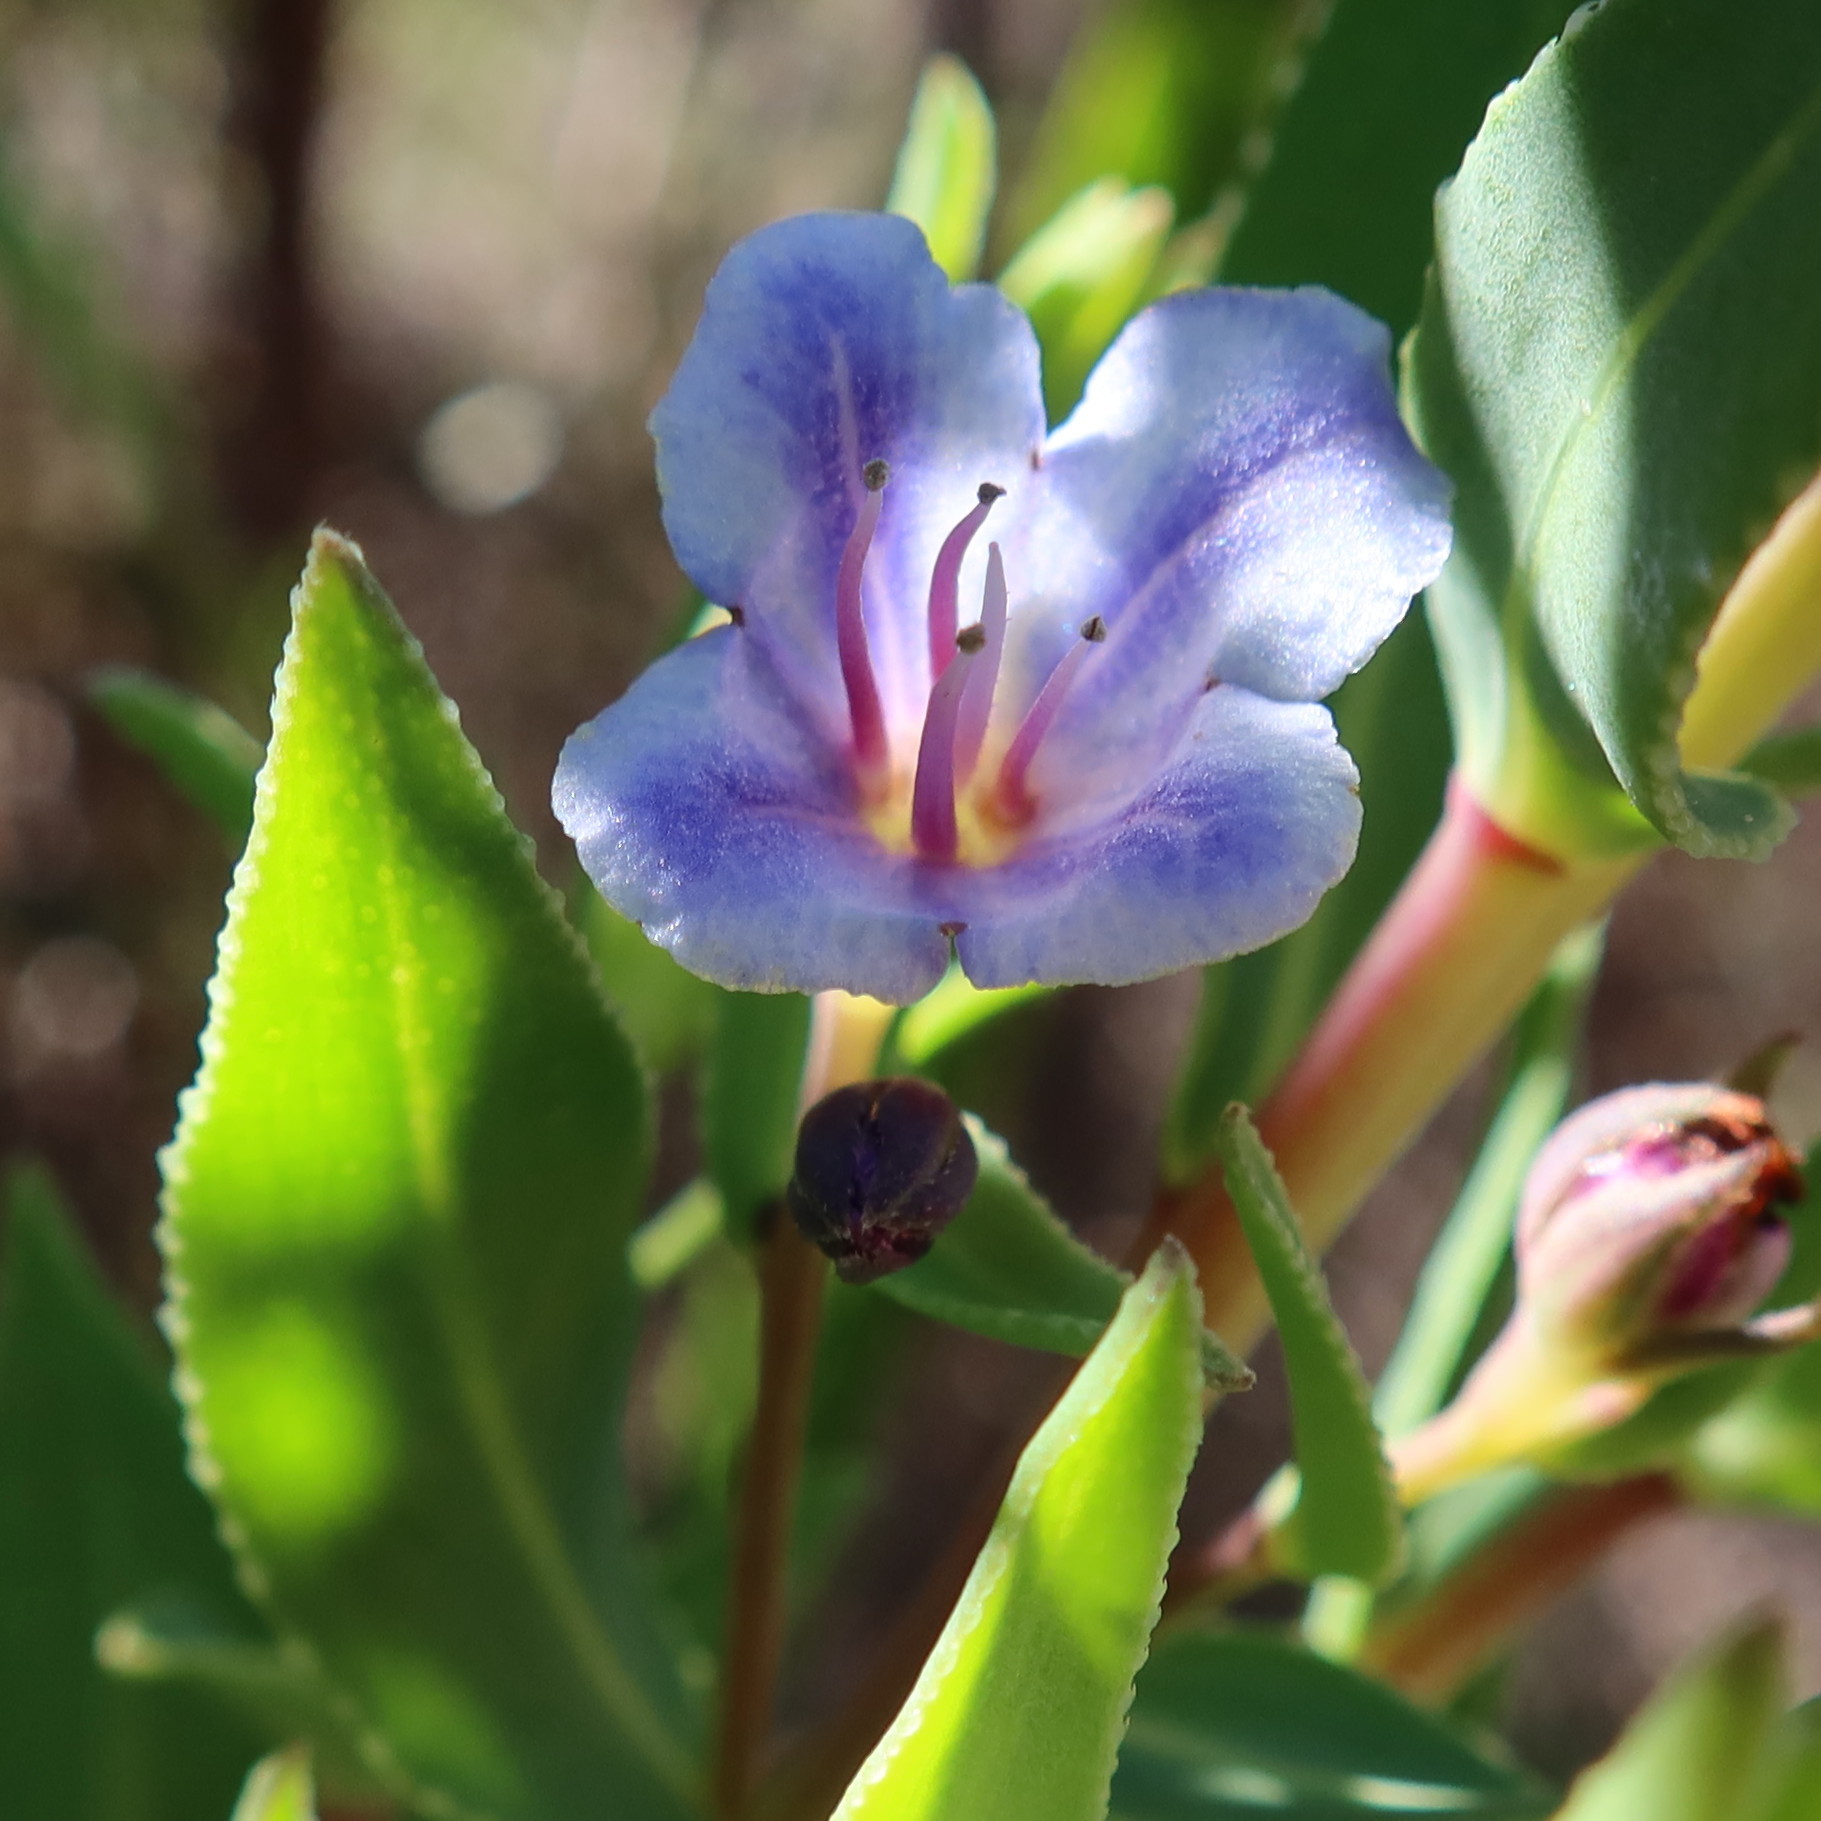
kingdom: Plantae
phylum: Tracheophyta
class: Magnoliopsida
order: Boraginales
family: Boraginaceae
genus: Lobostemon
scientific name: Lobostemon glaucophyllus
